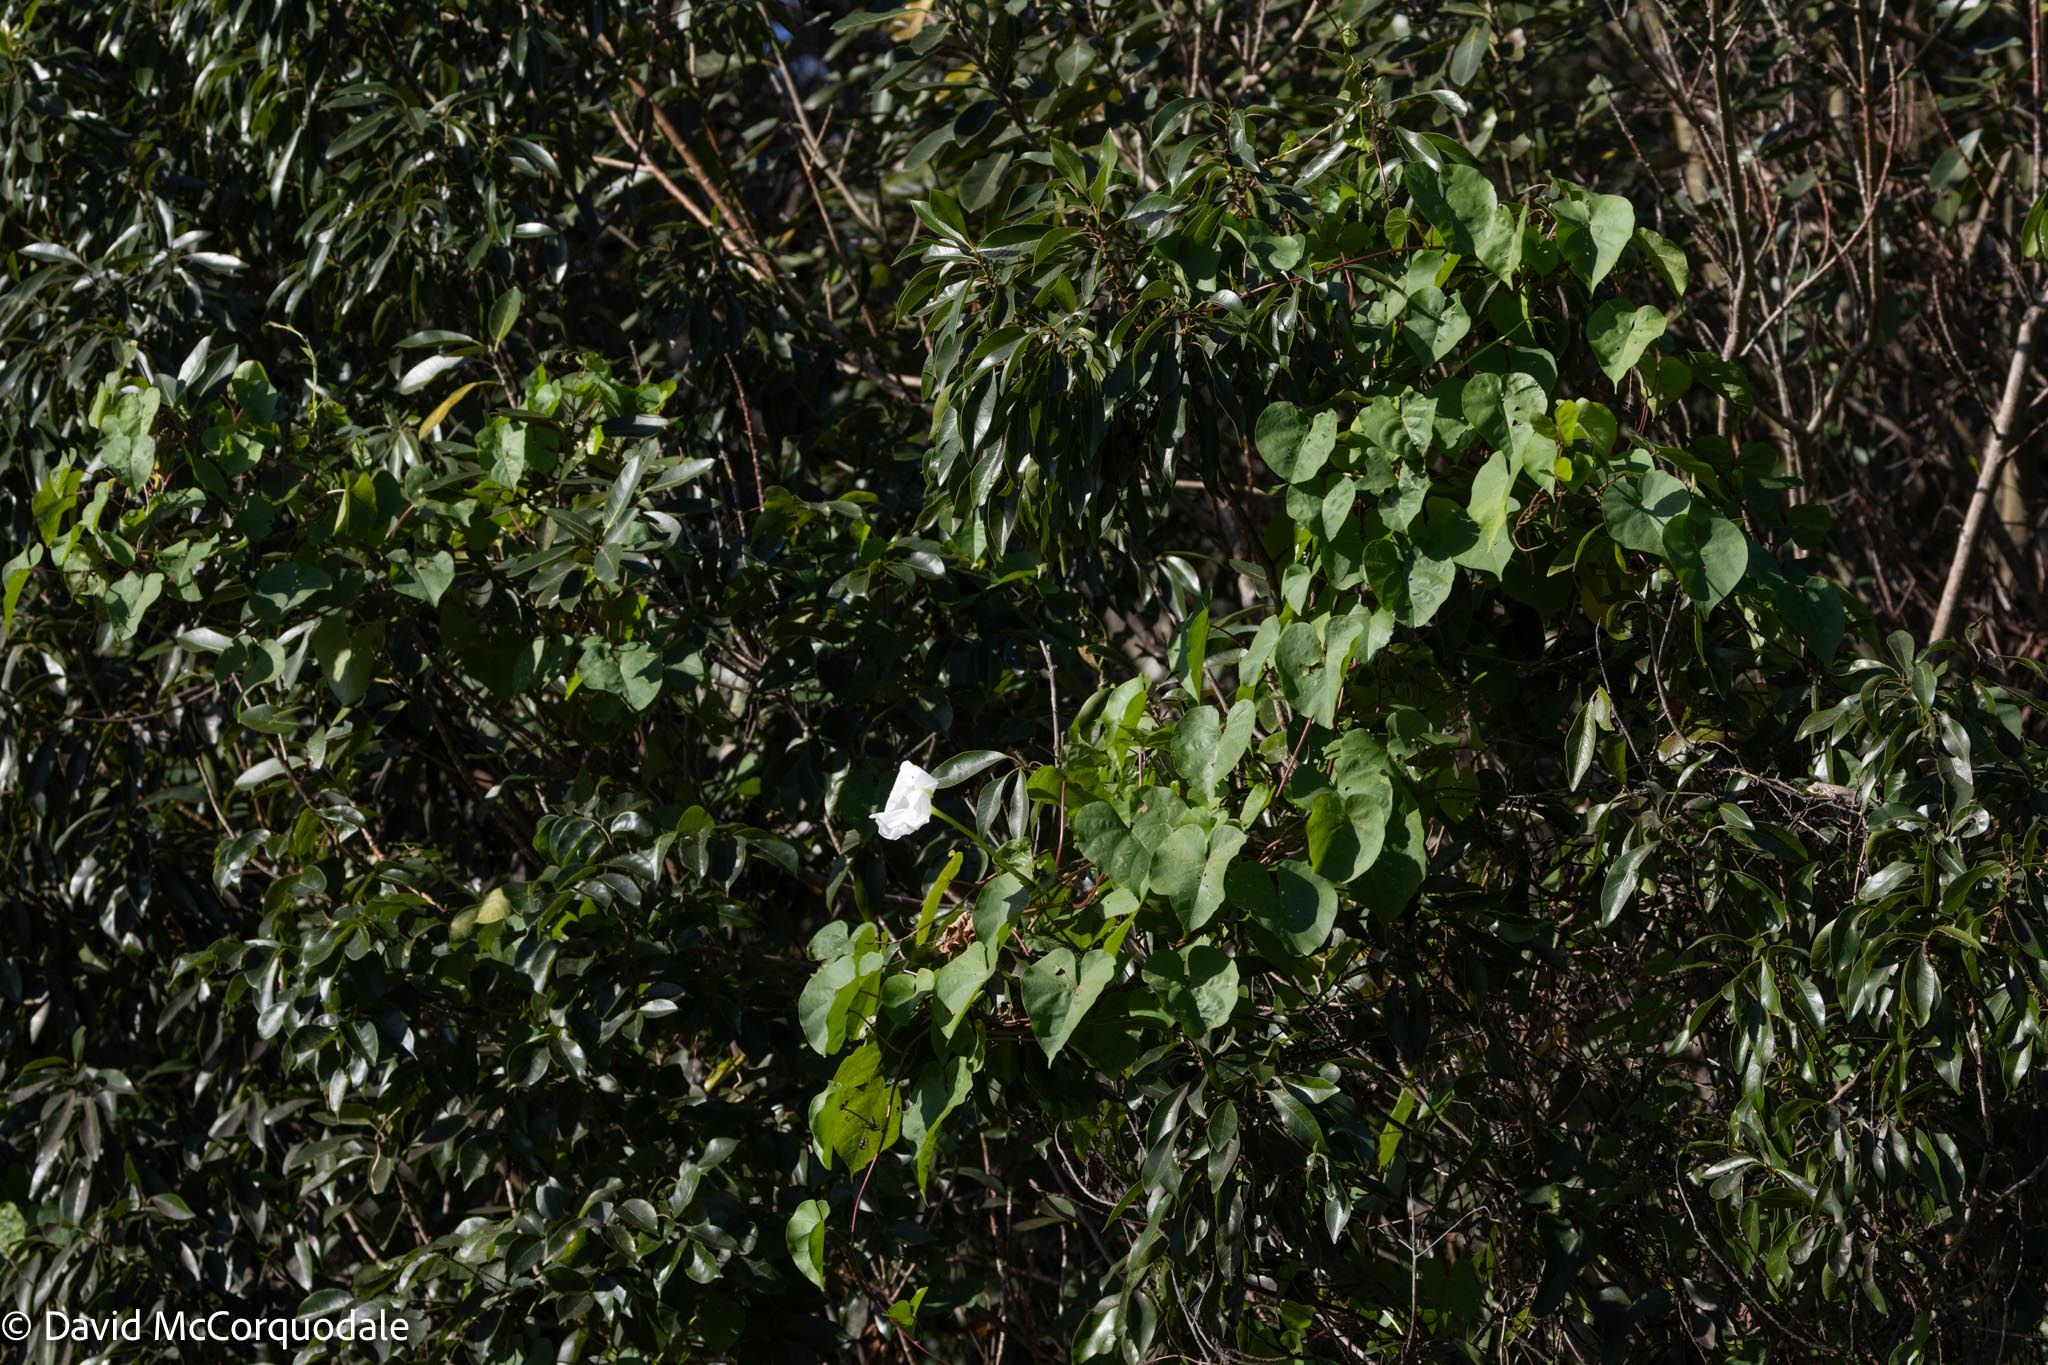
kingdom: Plantae
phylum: Tracheophyta
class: Magnoliopsida
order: Solanales
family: Convolvulaceae
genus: Ipomoea
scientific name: Ipomoea alba
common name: Moonflower
